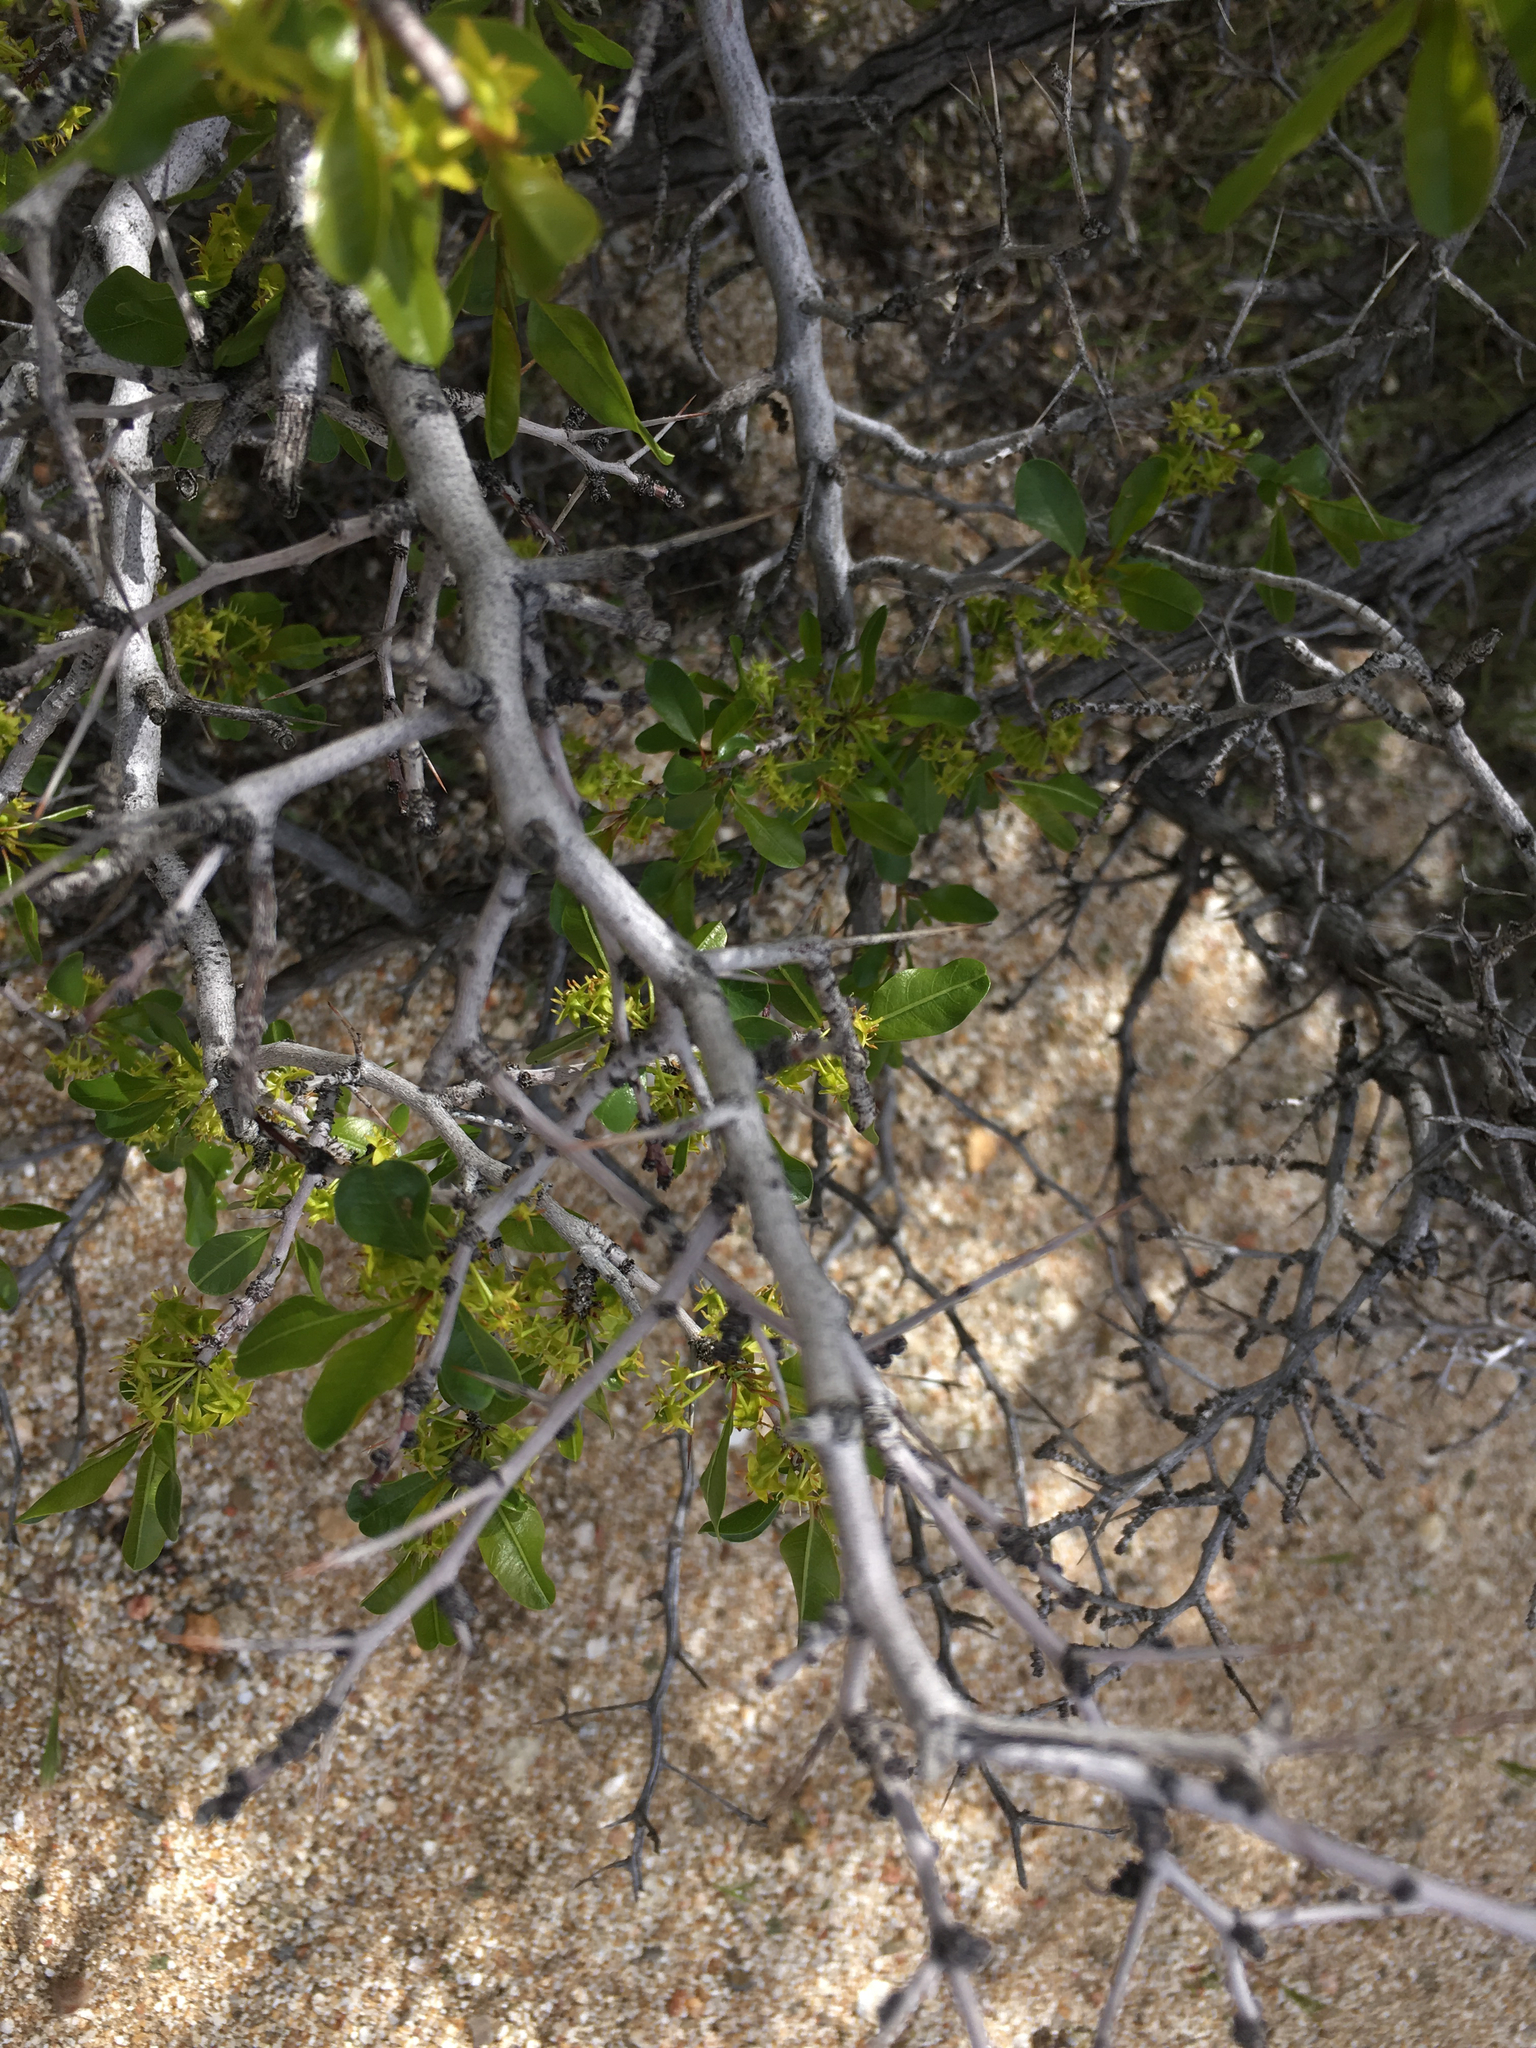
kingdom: Plantae
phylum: Tracheophyta
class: Magnoliopsida
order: Rosales
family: Rhamnaceae
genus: Pseudoziziphus
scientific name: Pseudoziziphus parryi
